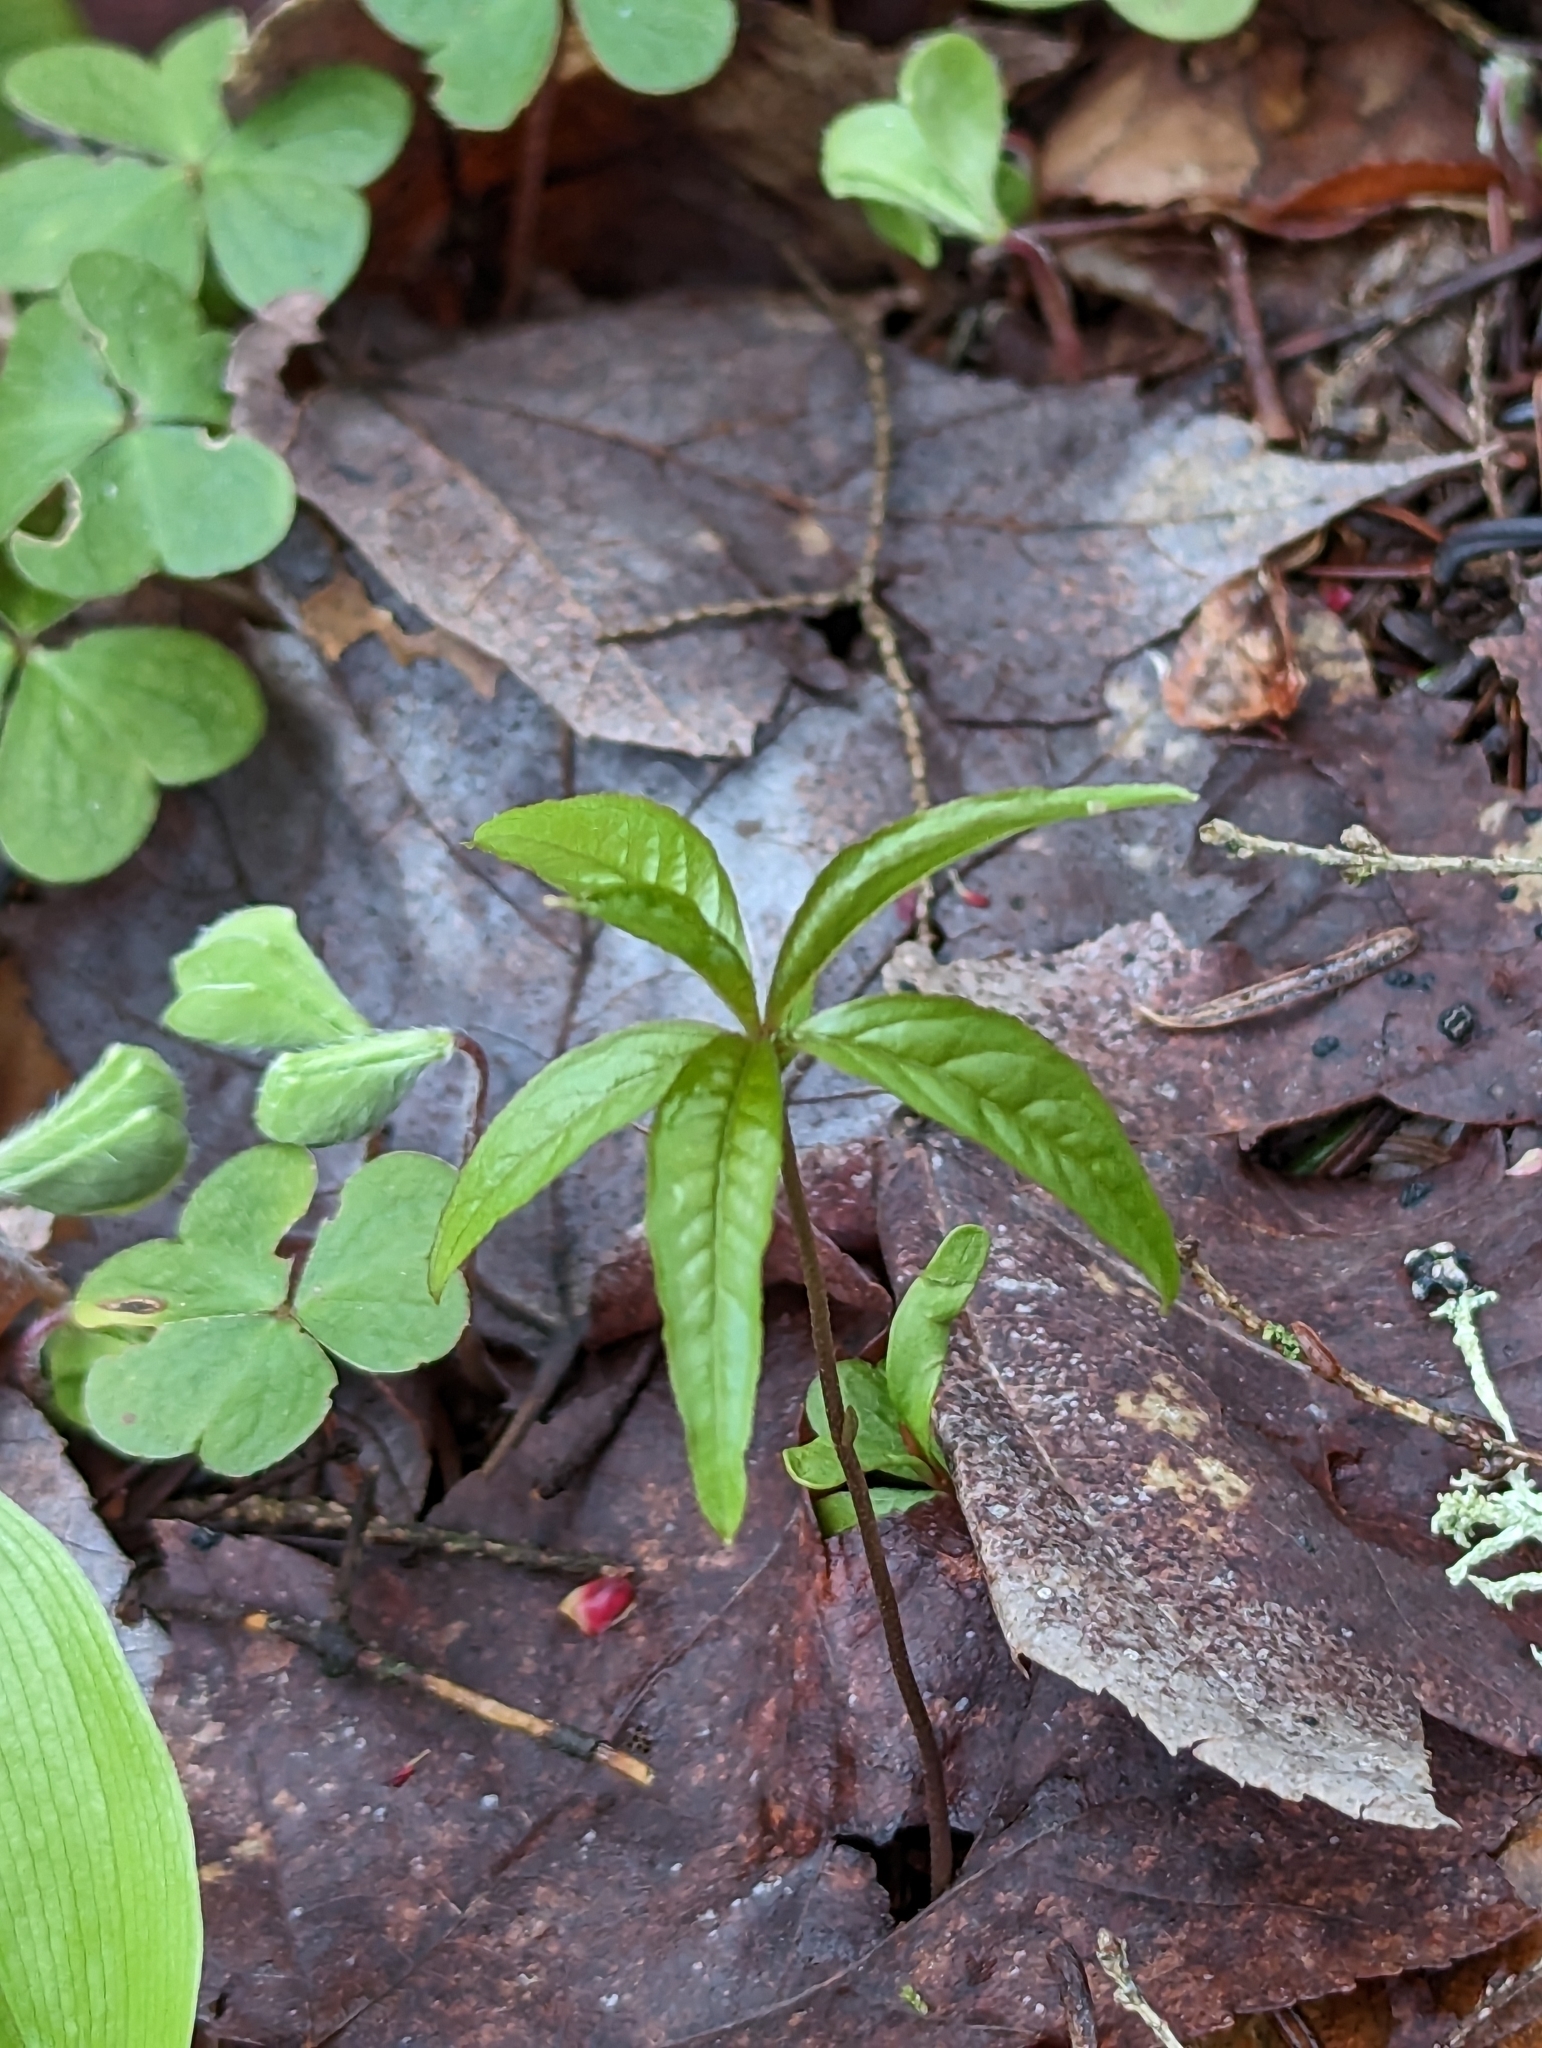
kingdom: Plantae
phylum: Tracheophyta
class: Magnoliopsida
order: Ericales
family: Primulaceae
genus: Lysimachia
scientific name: Lysimachia borealis
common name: American starflower
